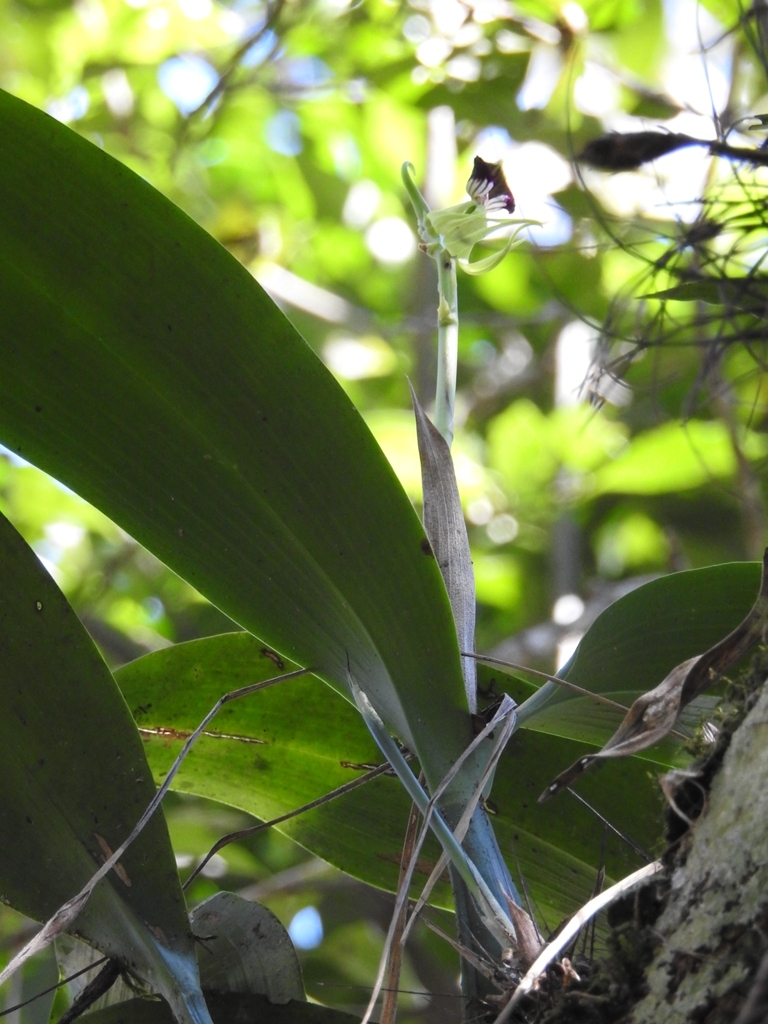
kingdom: Plantae
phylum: Tracheophyta
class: Liliopsida
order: Asparagales
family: Orchidaceae
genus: Prosthechea
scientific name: Prosthechea cochleata
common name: Clamshell orchid
